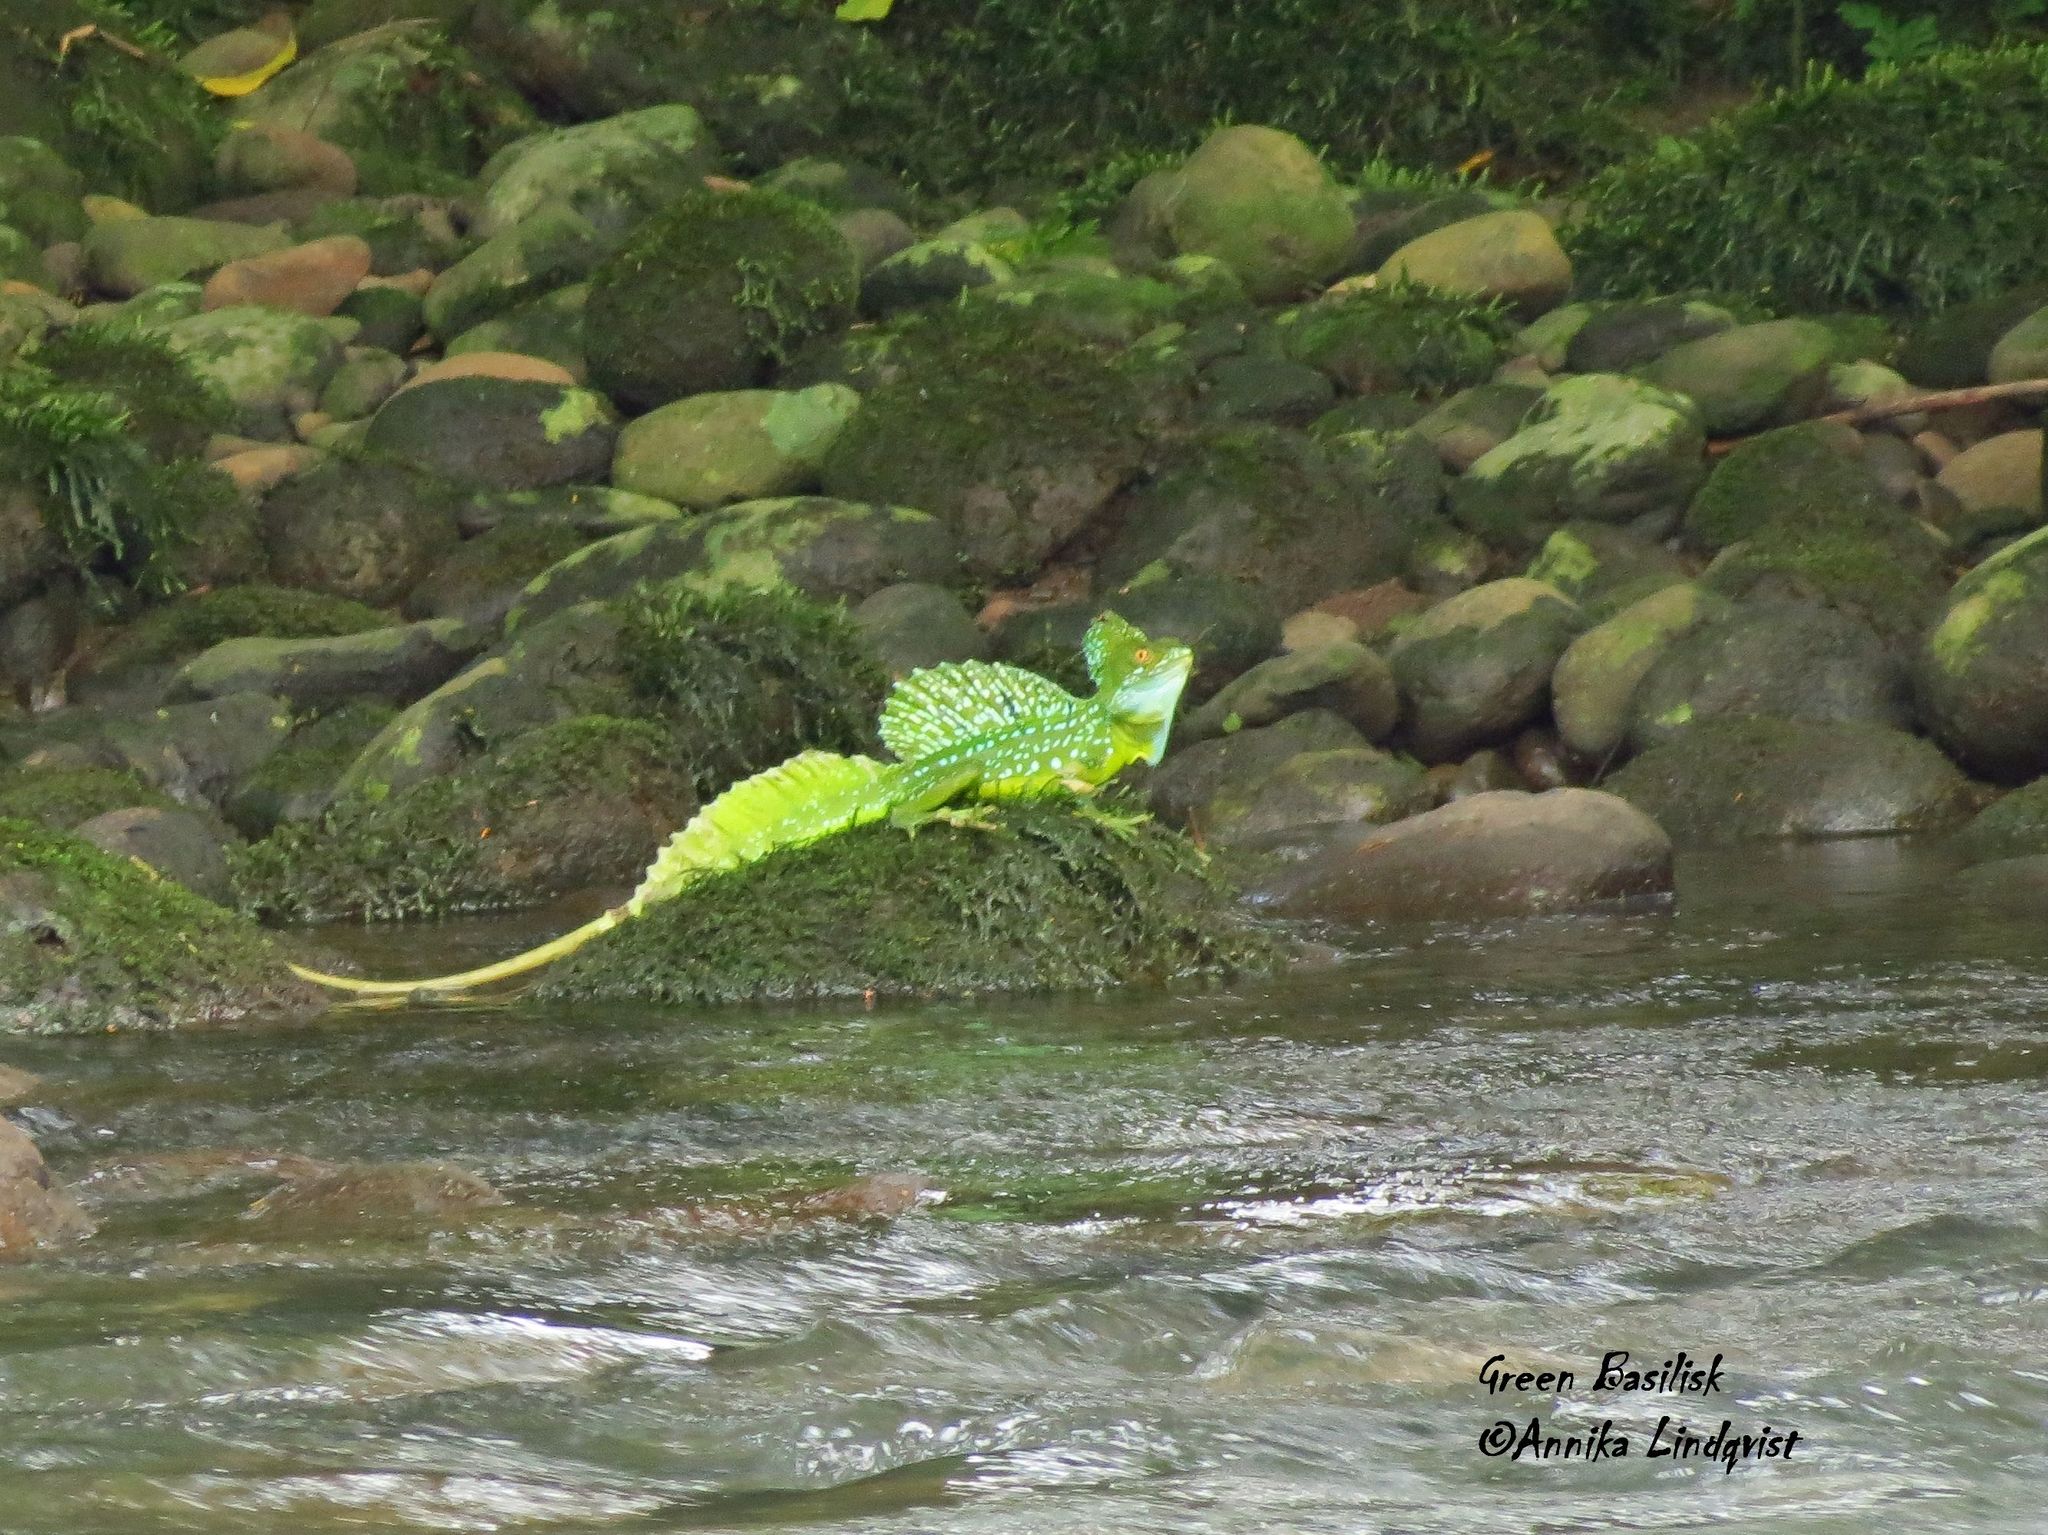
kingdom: Animalia
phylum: Chordata
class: Squamata
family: Corytophanidae
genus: Basiliscus
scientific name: Basiliscus plumifrons
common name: Green basilisk
